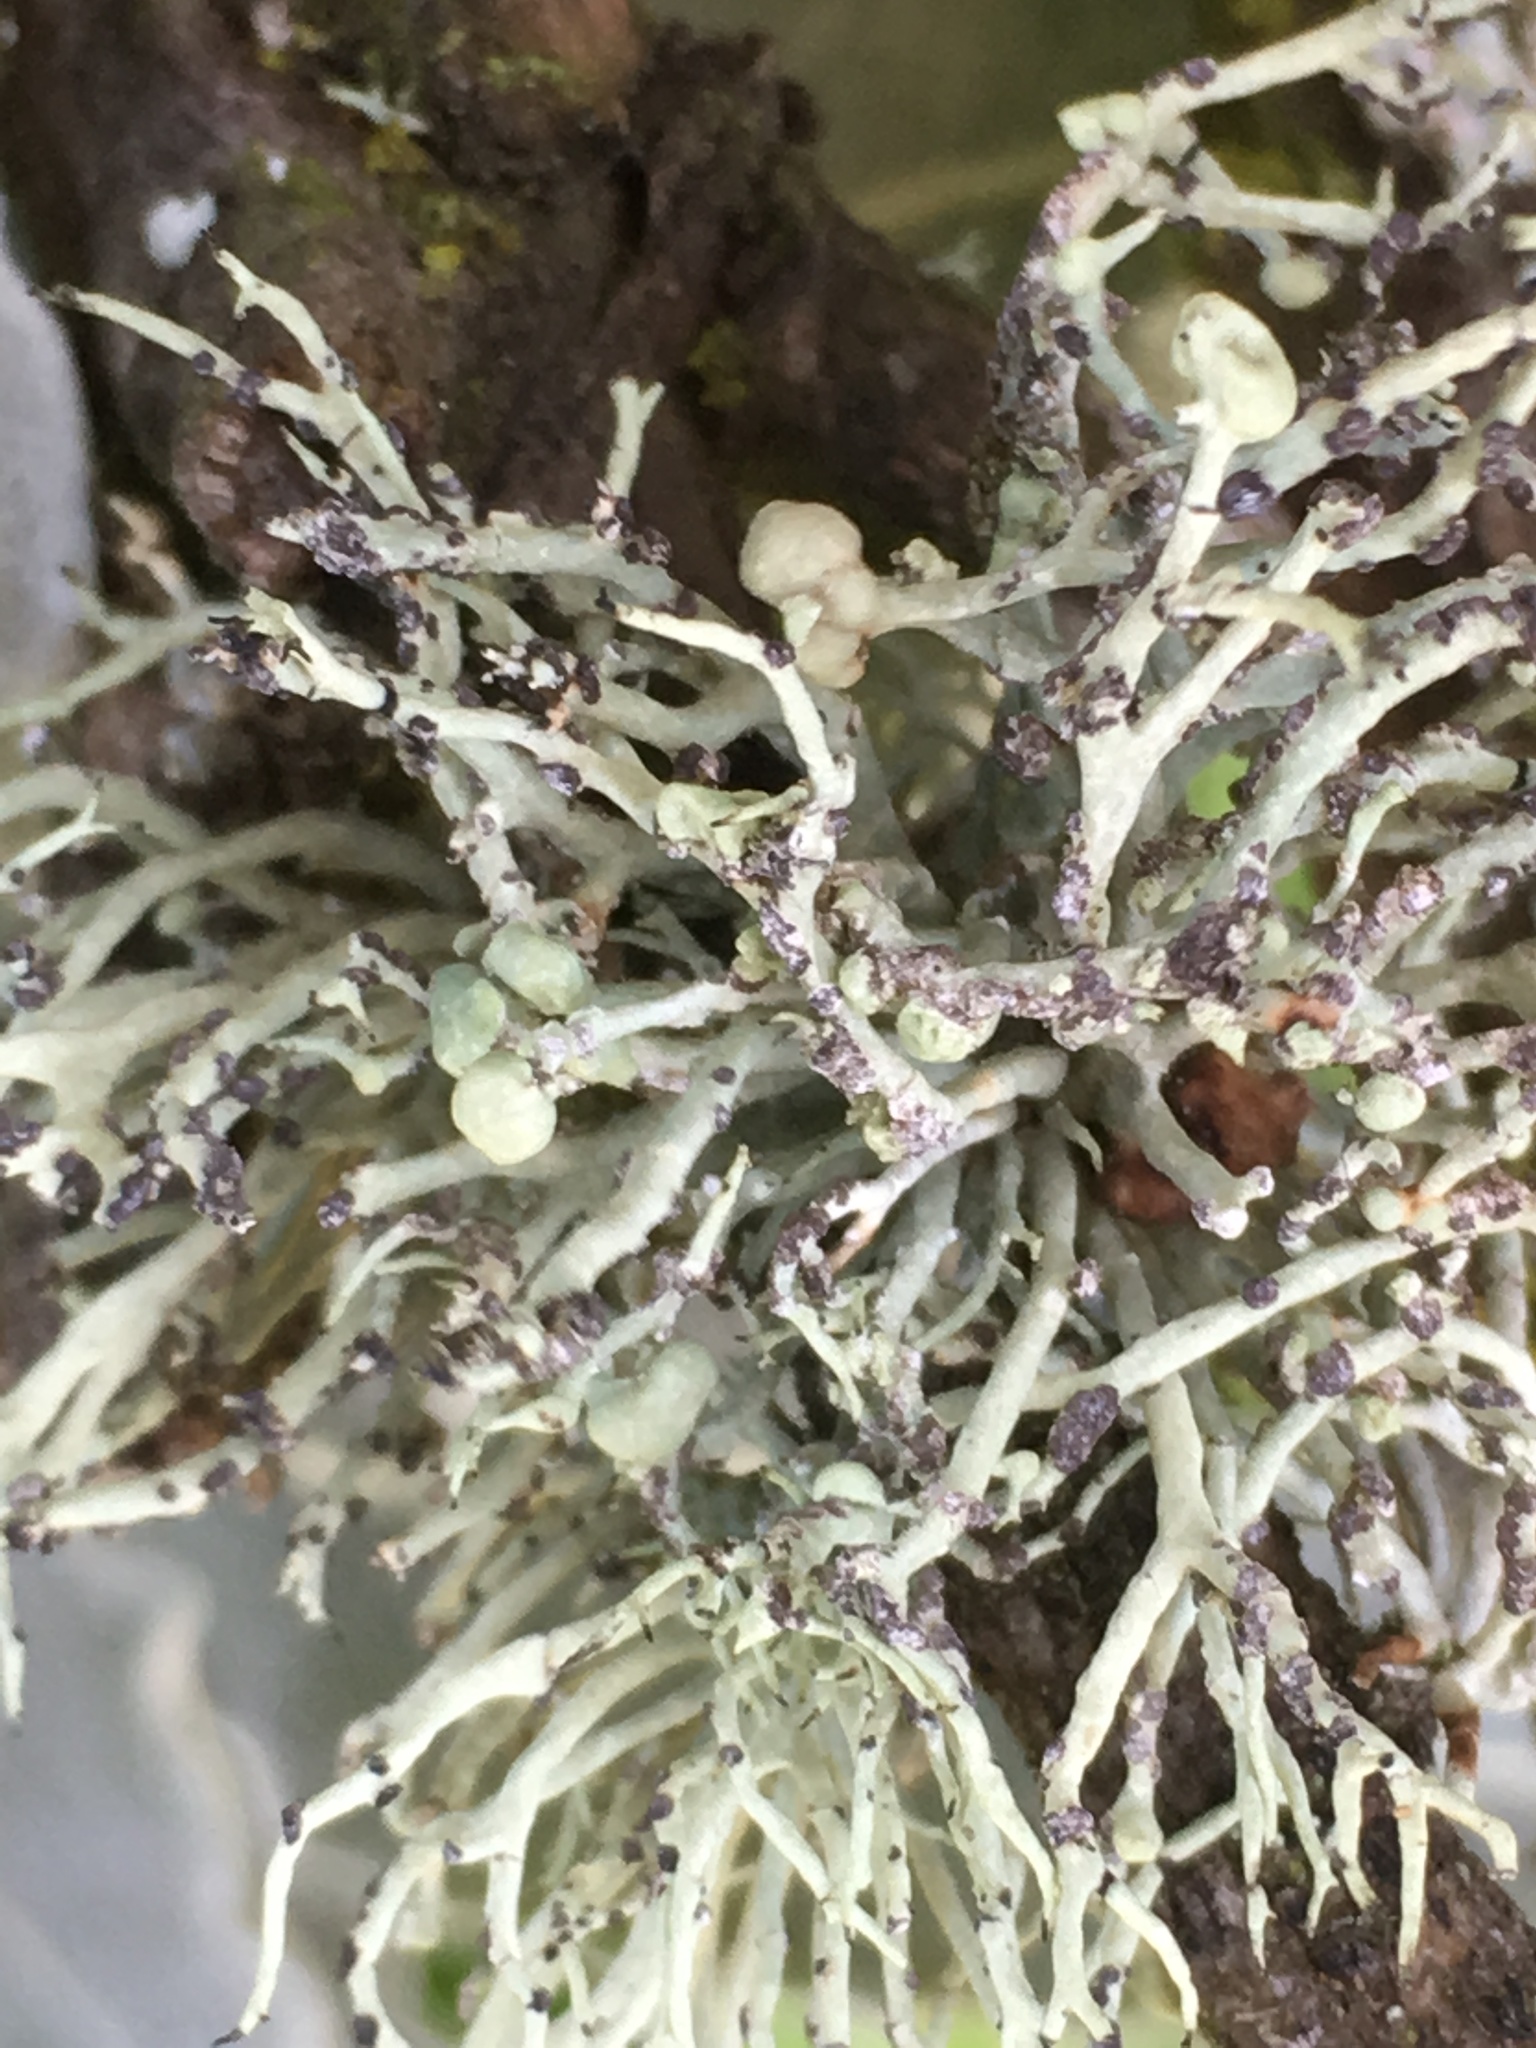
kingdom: Fungi
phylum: Ascomycota
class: Lecanoromycetes
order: Lecanorales
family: Ramalinaceae
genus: Niebla
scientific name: Niebla cephalota
